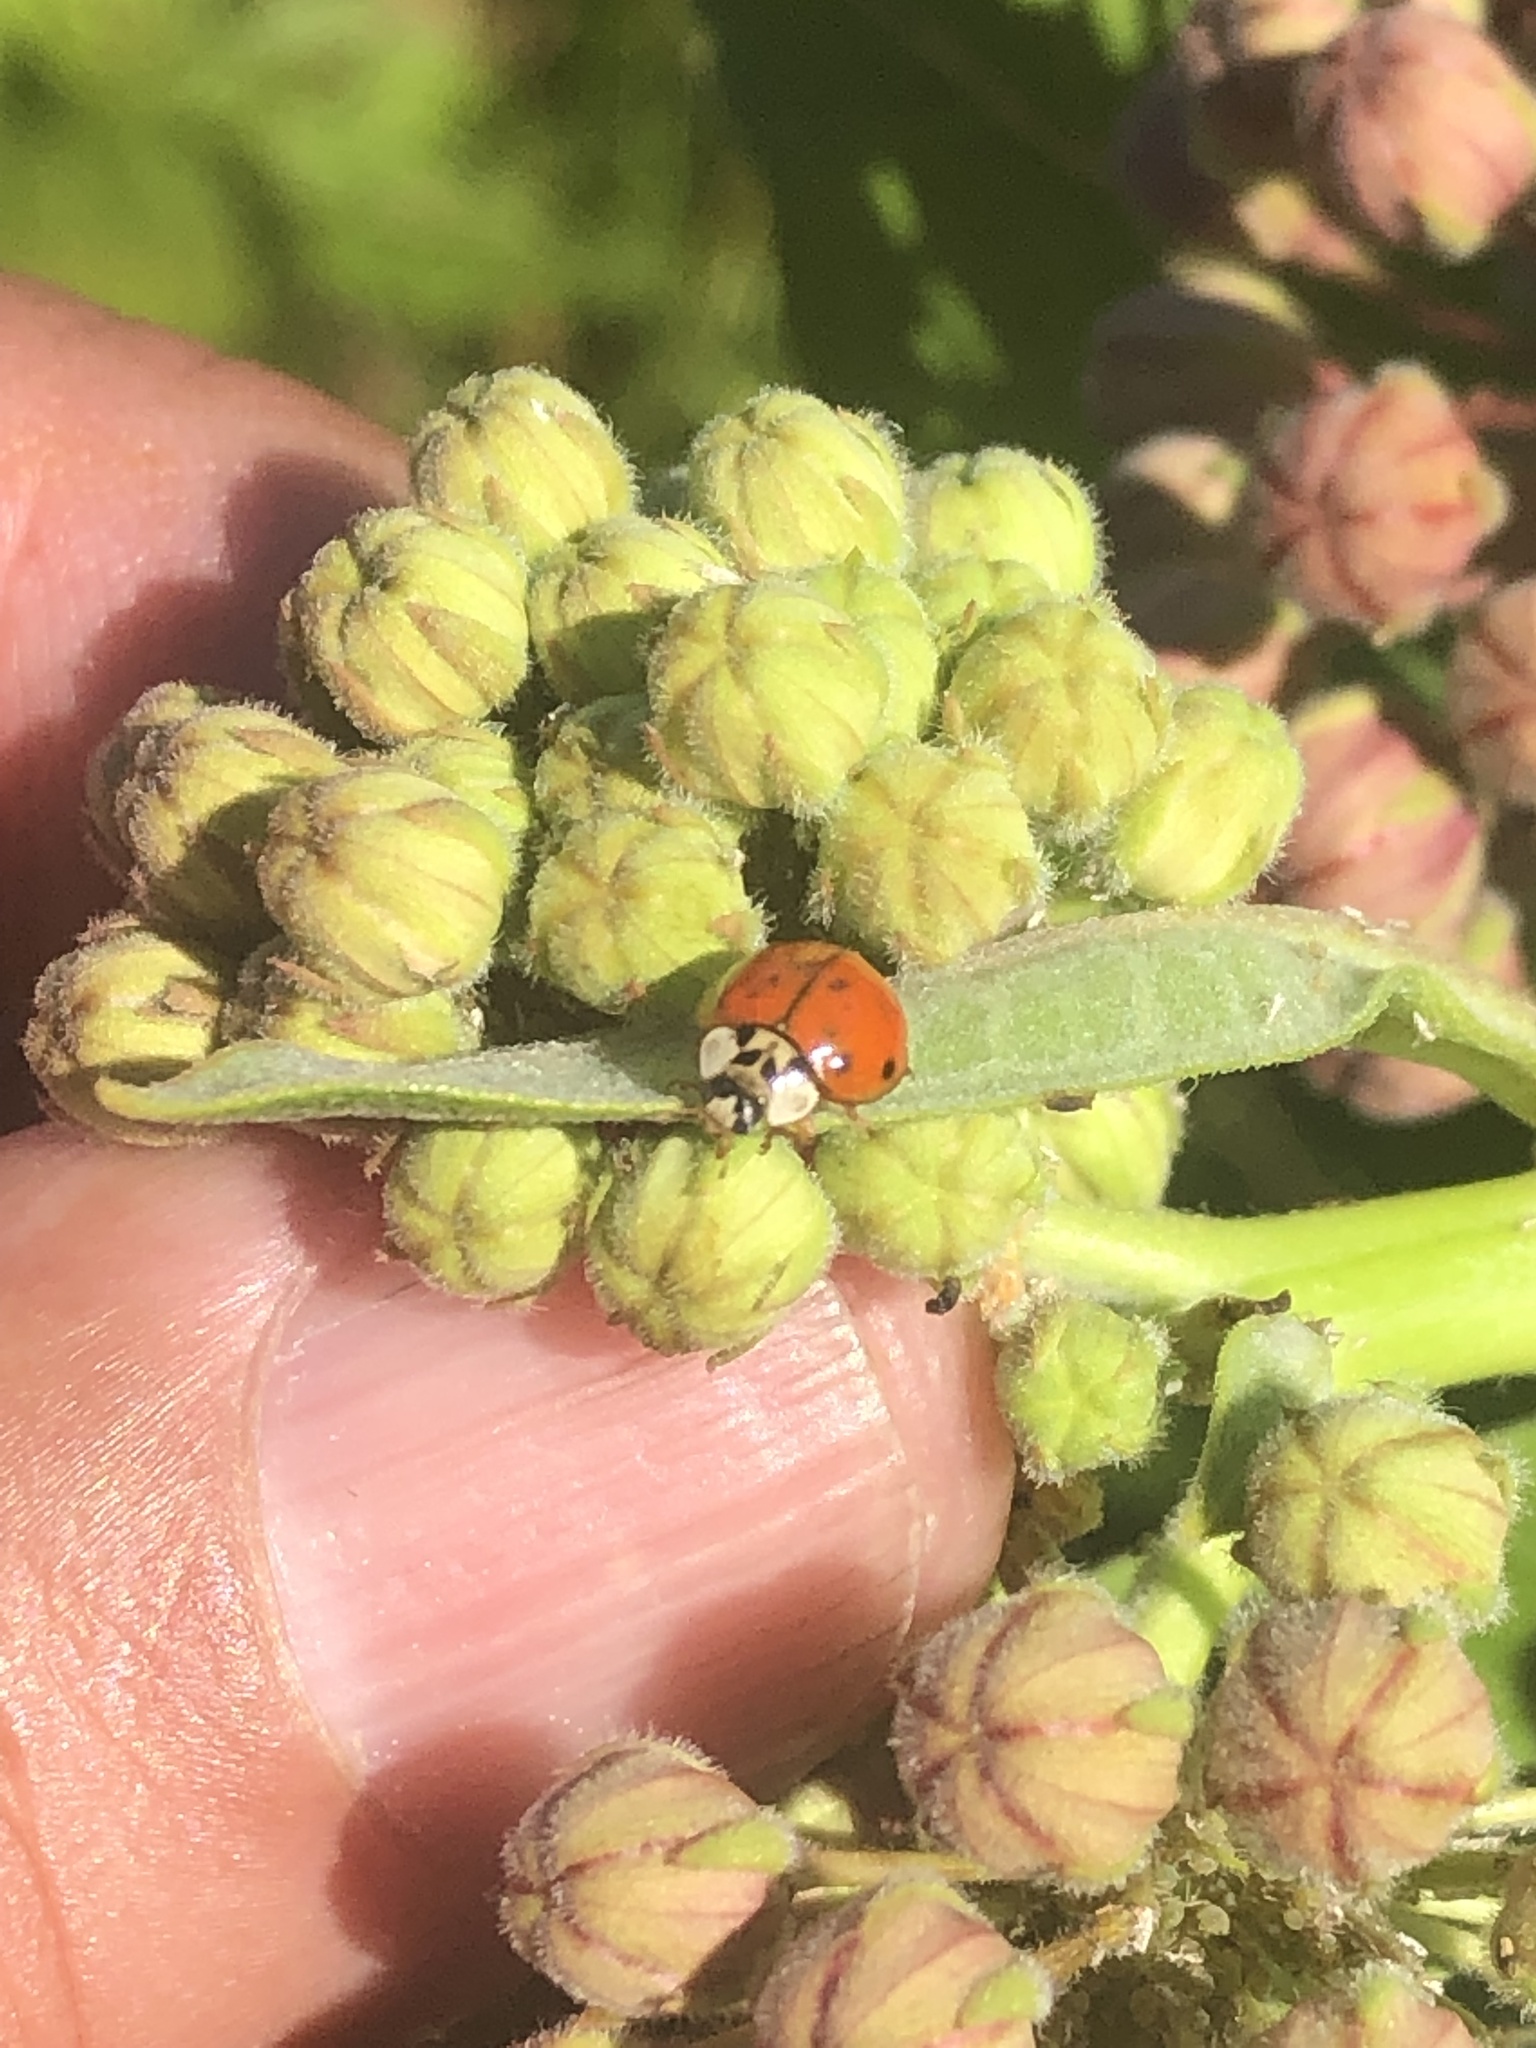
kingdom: Animalia
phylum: Arthropoda
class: Insecta
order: Coleoptera
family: Coccinellidae
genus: Harmonia
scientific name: Harmonia axyridis
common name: Harlequin ladybird
